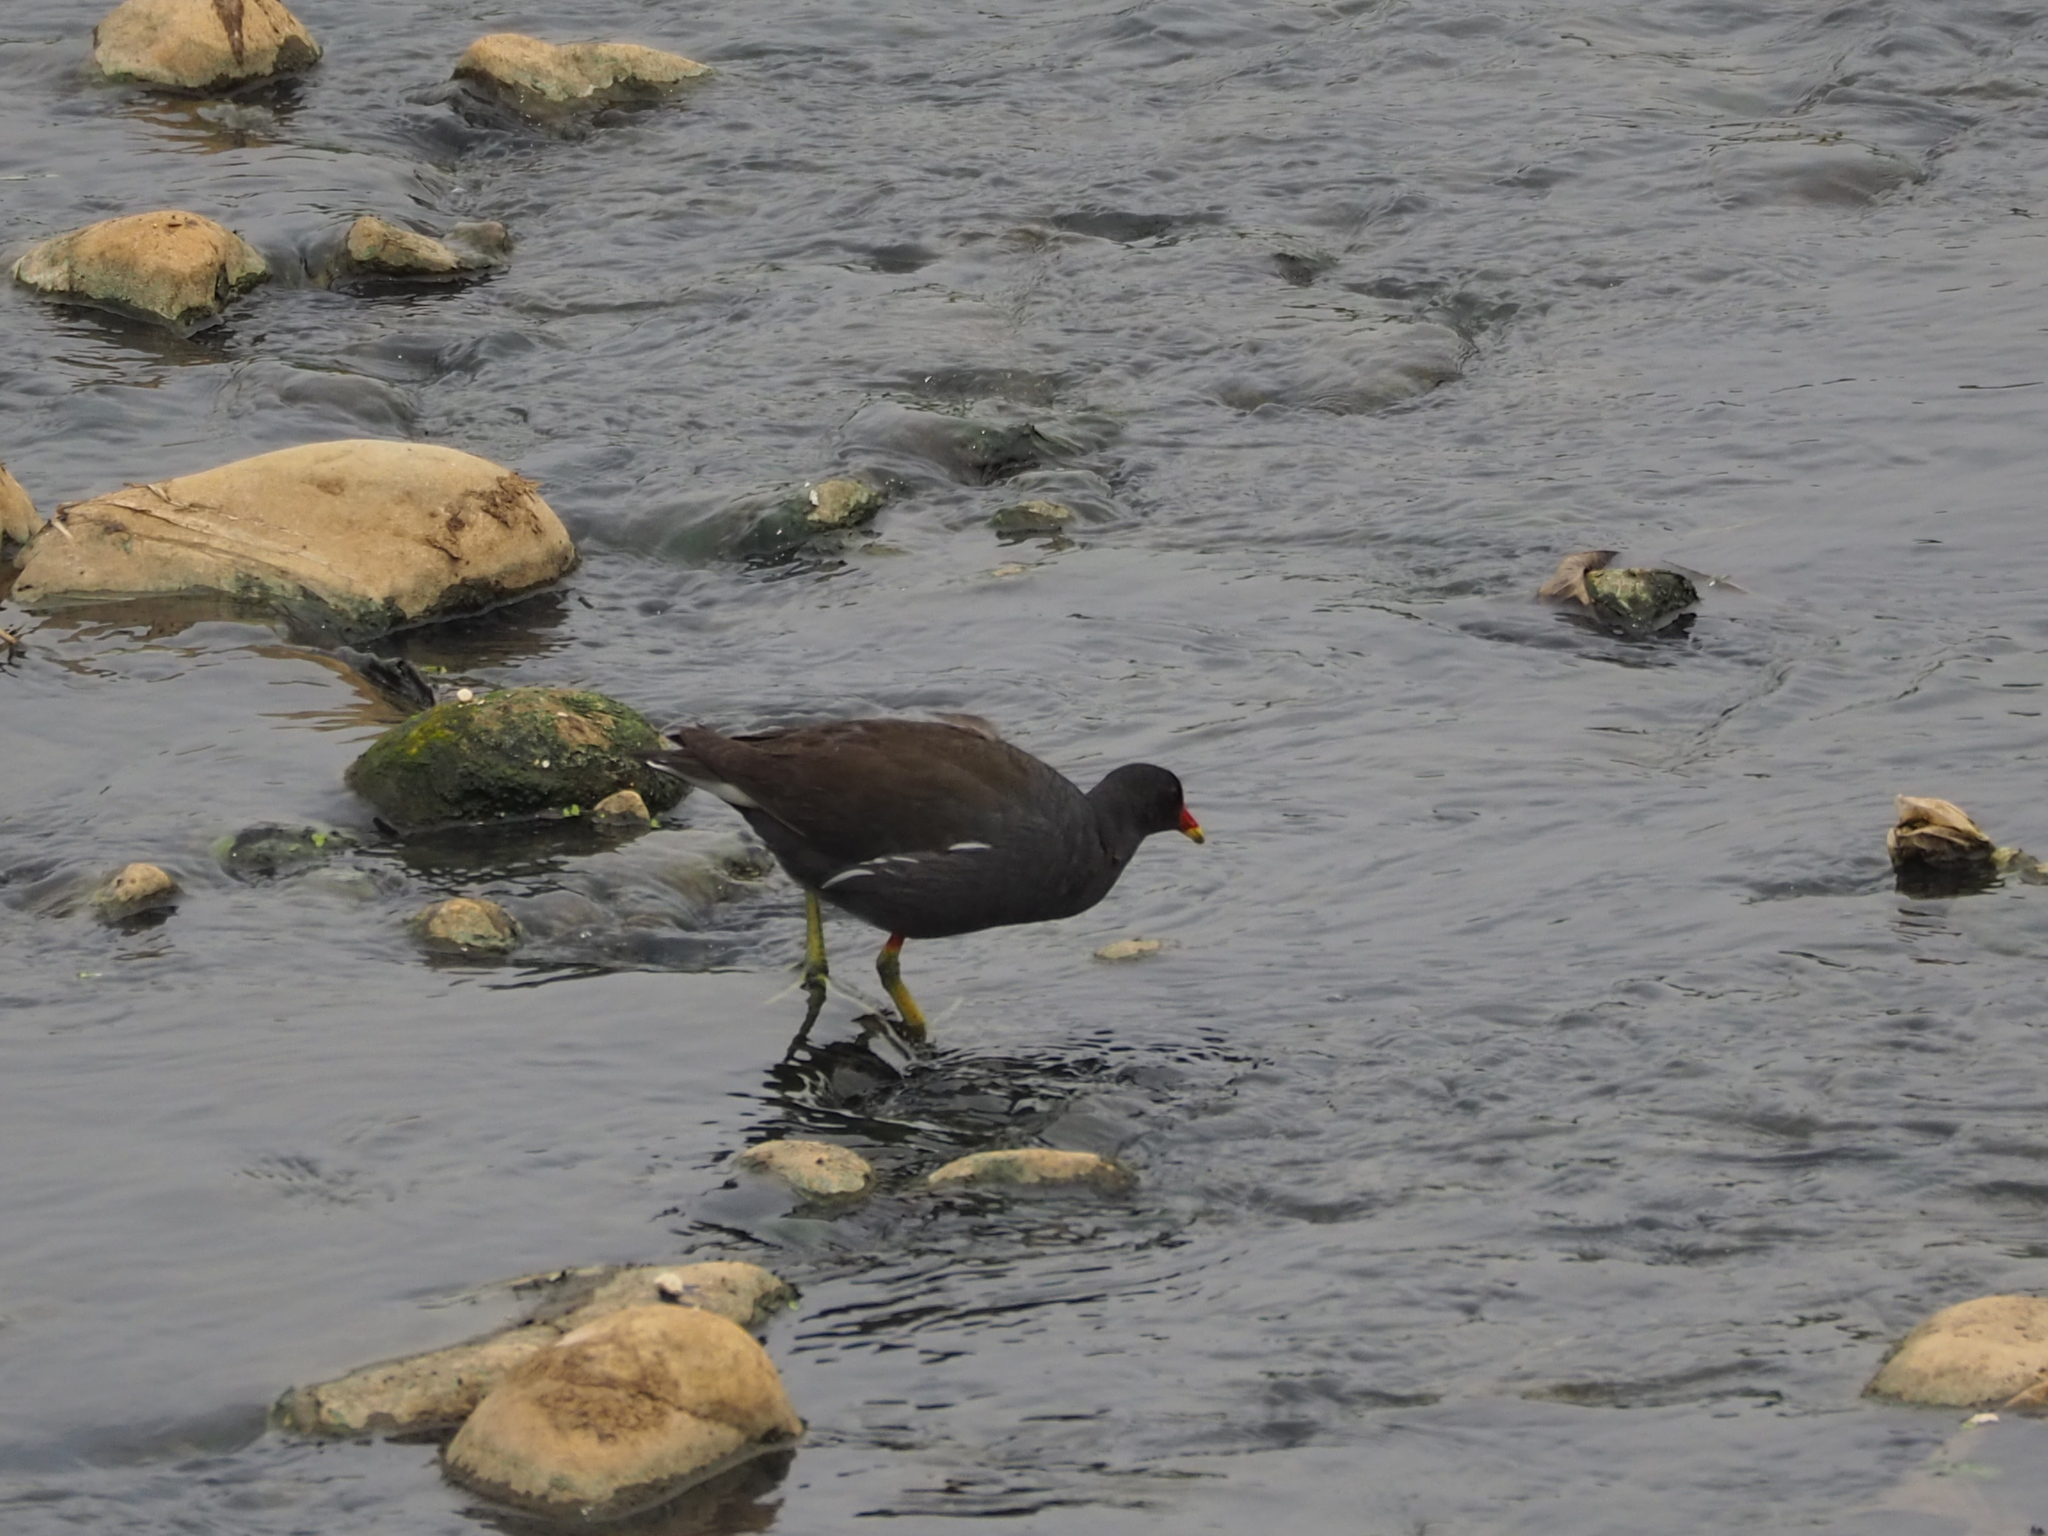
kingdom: Animalia
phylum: Chordata
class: Aves
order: Gruiformes
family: Rallidae
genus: Gallinula
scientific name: Gallinula chloropus
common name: Common moorhen
